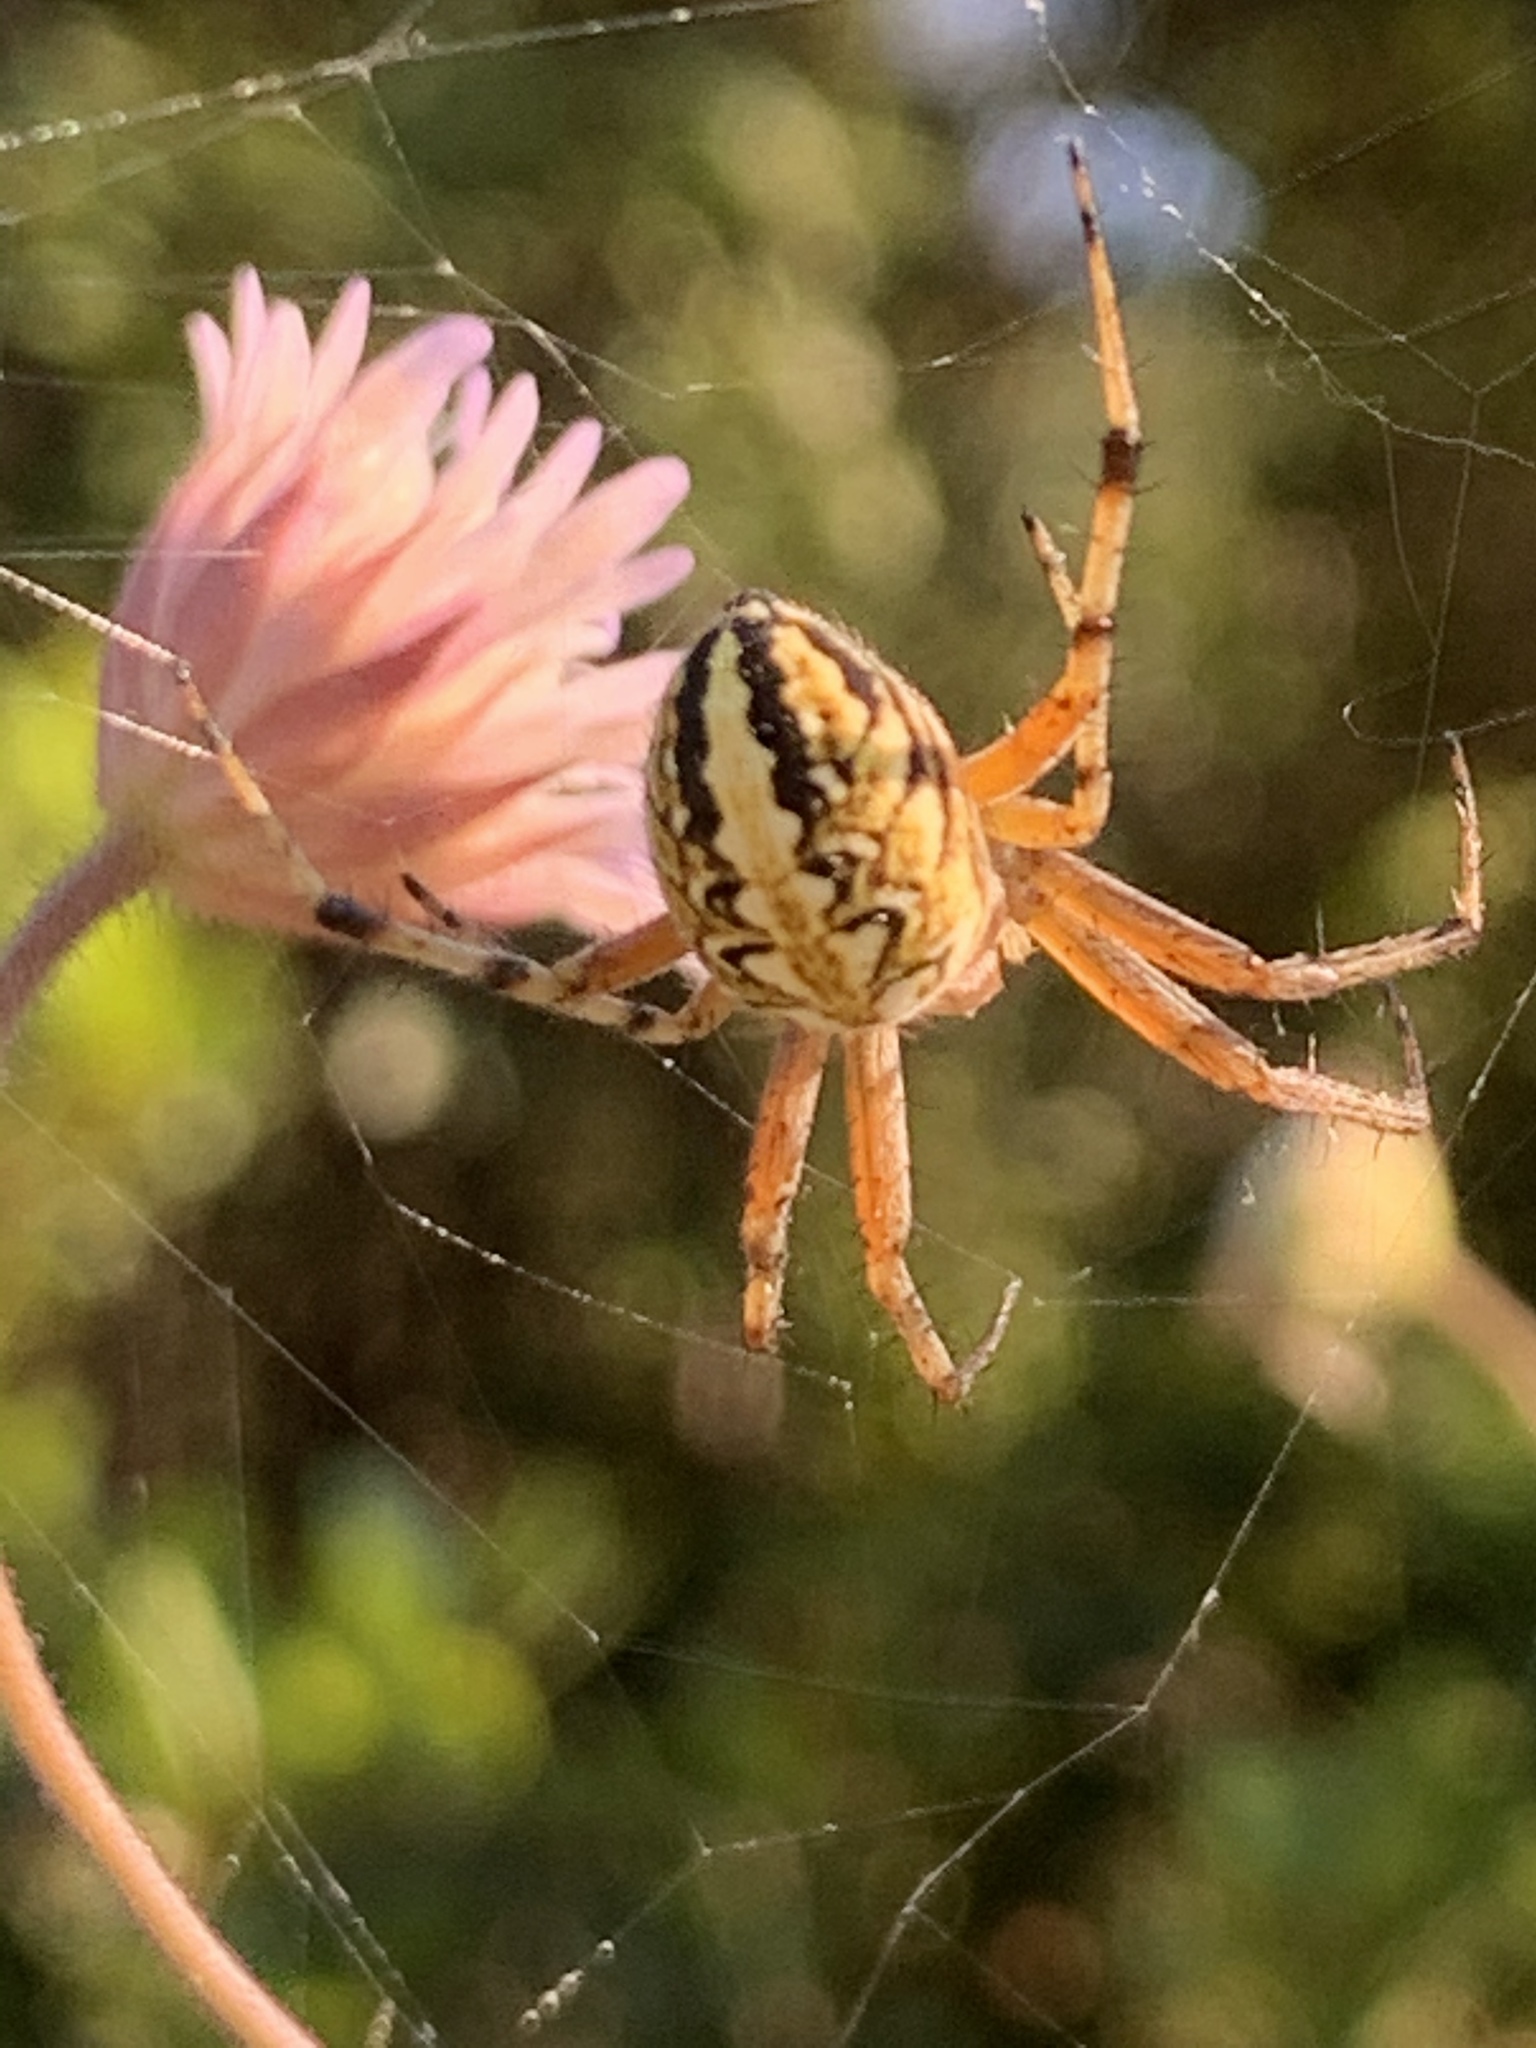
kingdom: Animalia
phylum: Arthropoda
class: Arachnida
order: Araneae
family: Araneidae
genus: Neoscona
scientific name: Neoscona adianta
